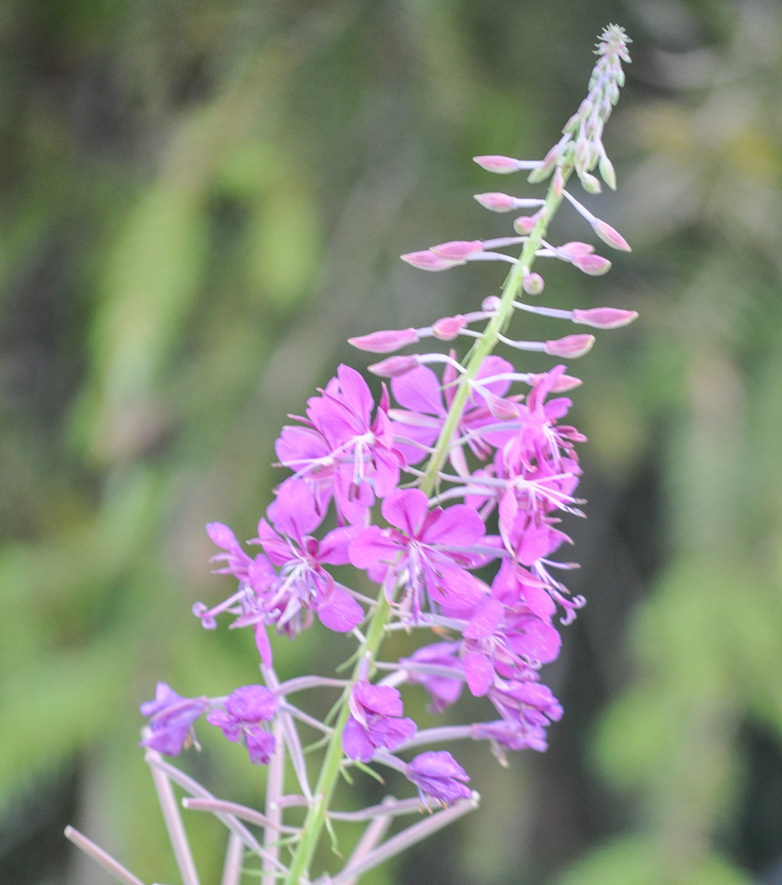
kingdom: Plantae
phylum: Tracheophyta
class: Magnoliopsida
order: Myrtales
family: Onagraceae
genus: Chamaenerion
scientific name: Chamaenerion angustifolium
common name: Fireweed
